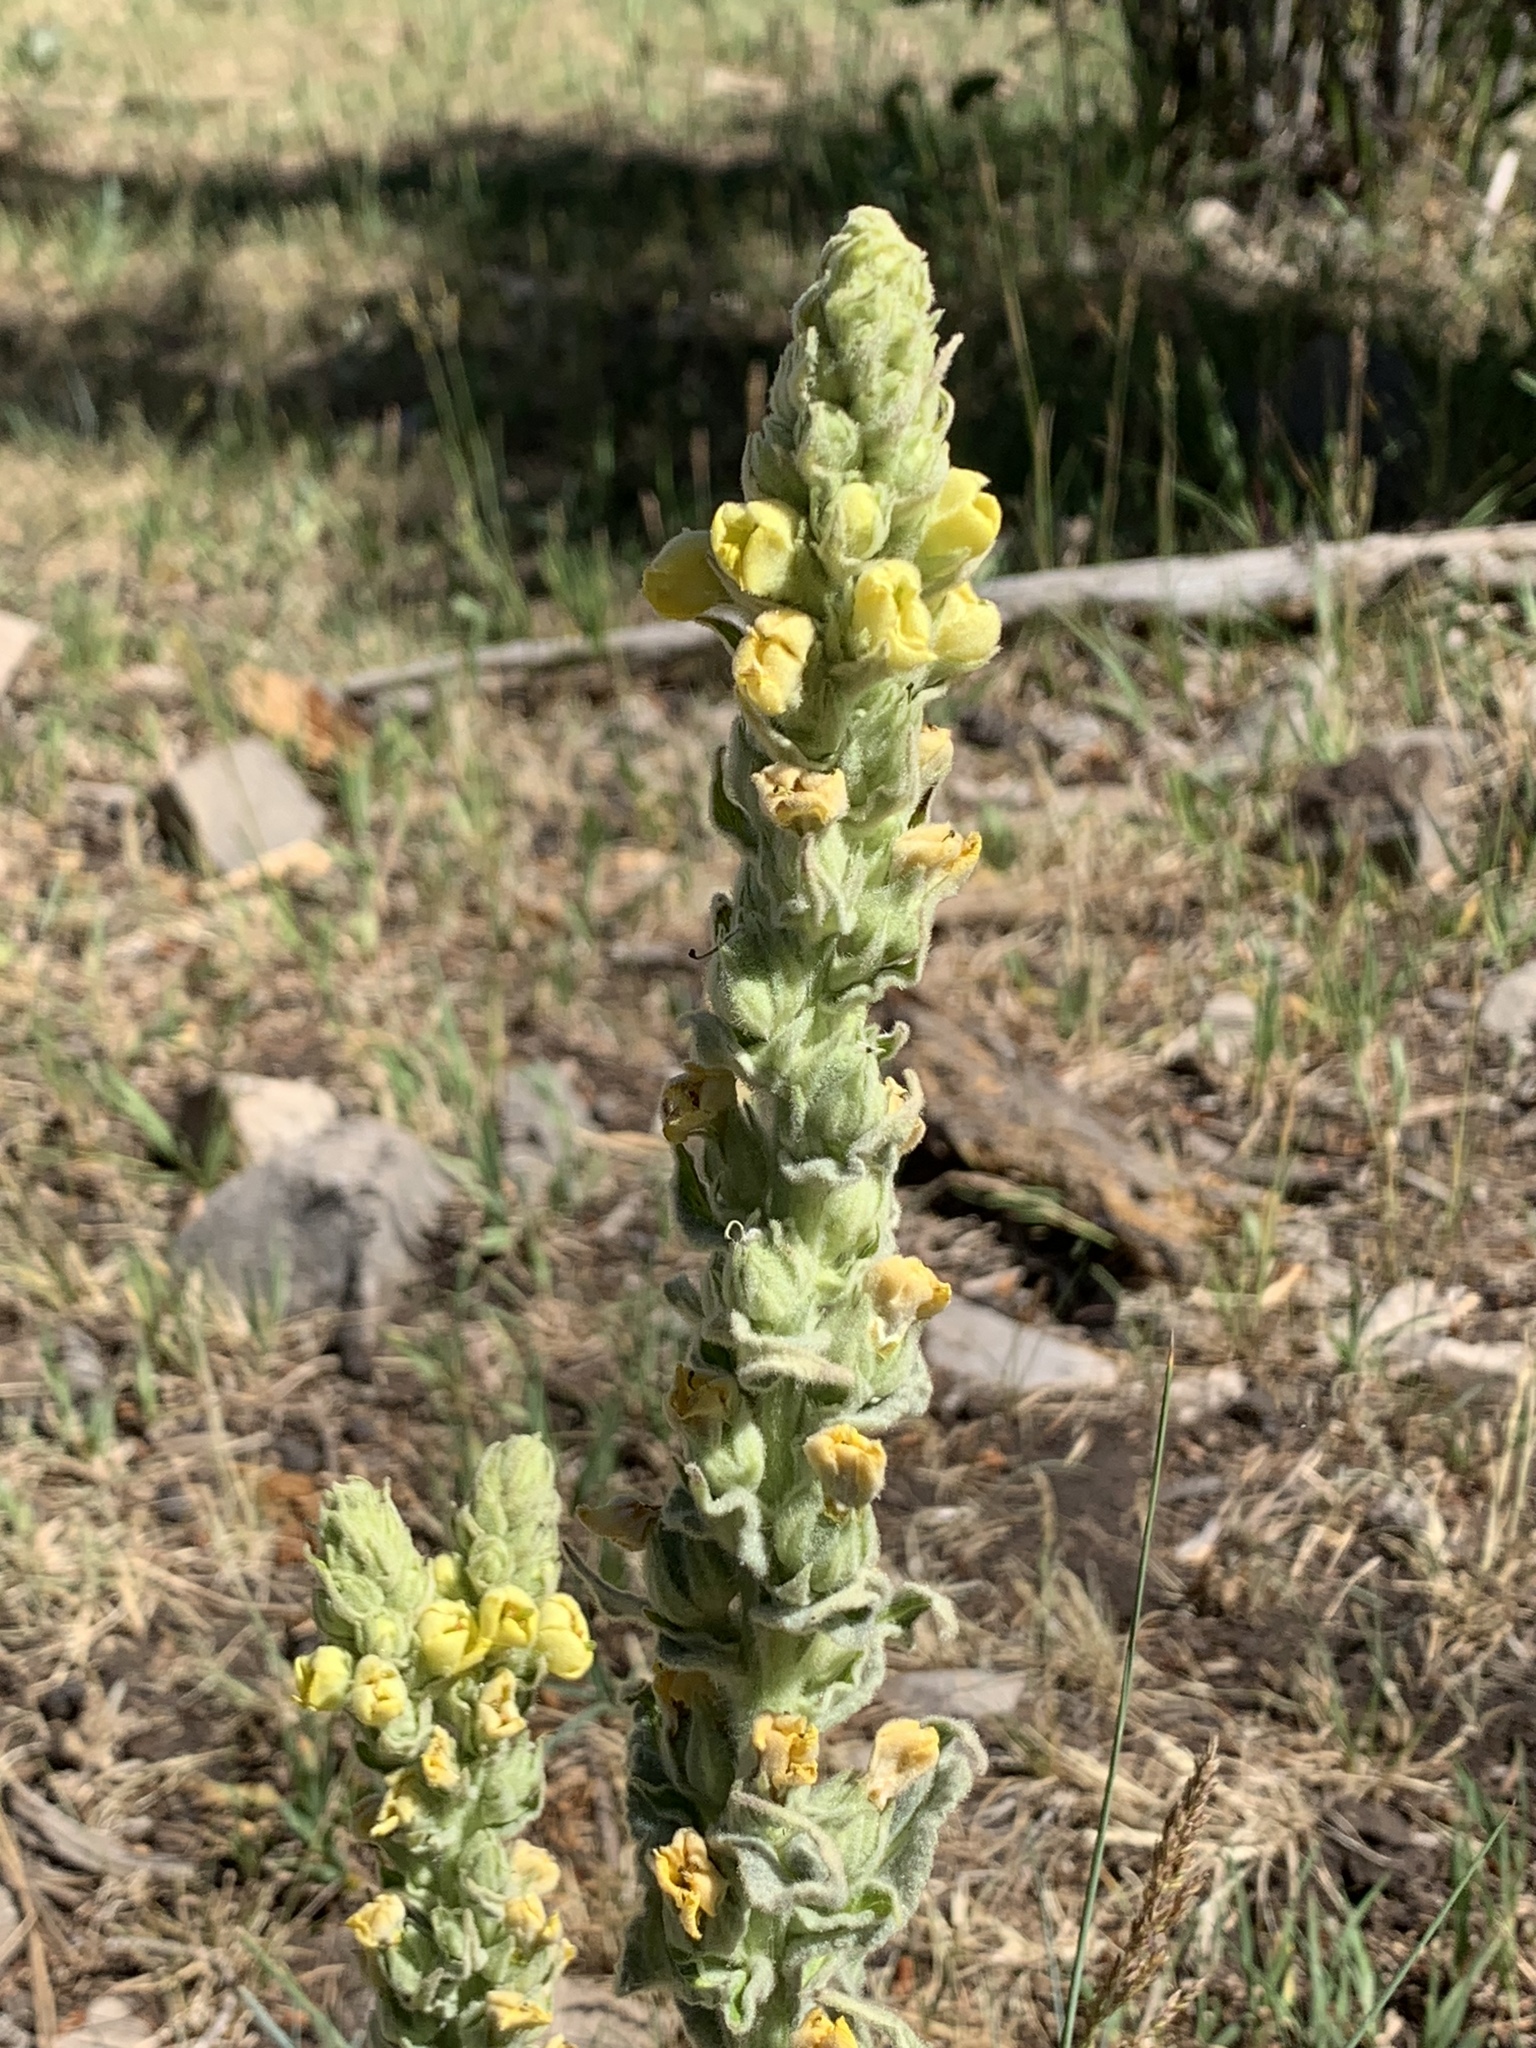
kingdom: Plantae
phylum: Tracheophyta
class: Magnoliopsida
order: Lamiales
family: Scrophulariaceae
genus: Verbascum
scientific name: Verbascum thapsus
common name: Common mullein
